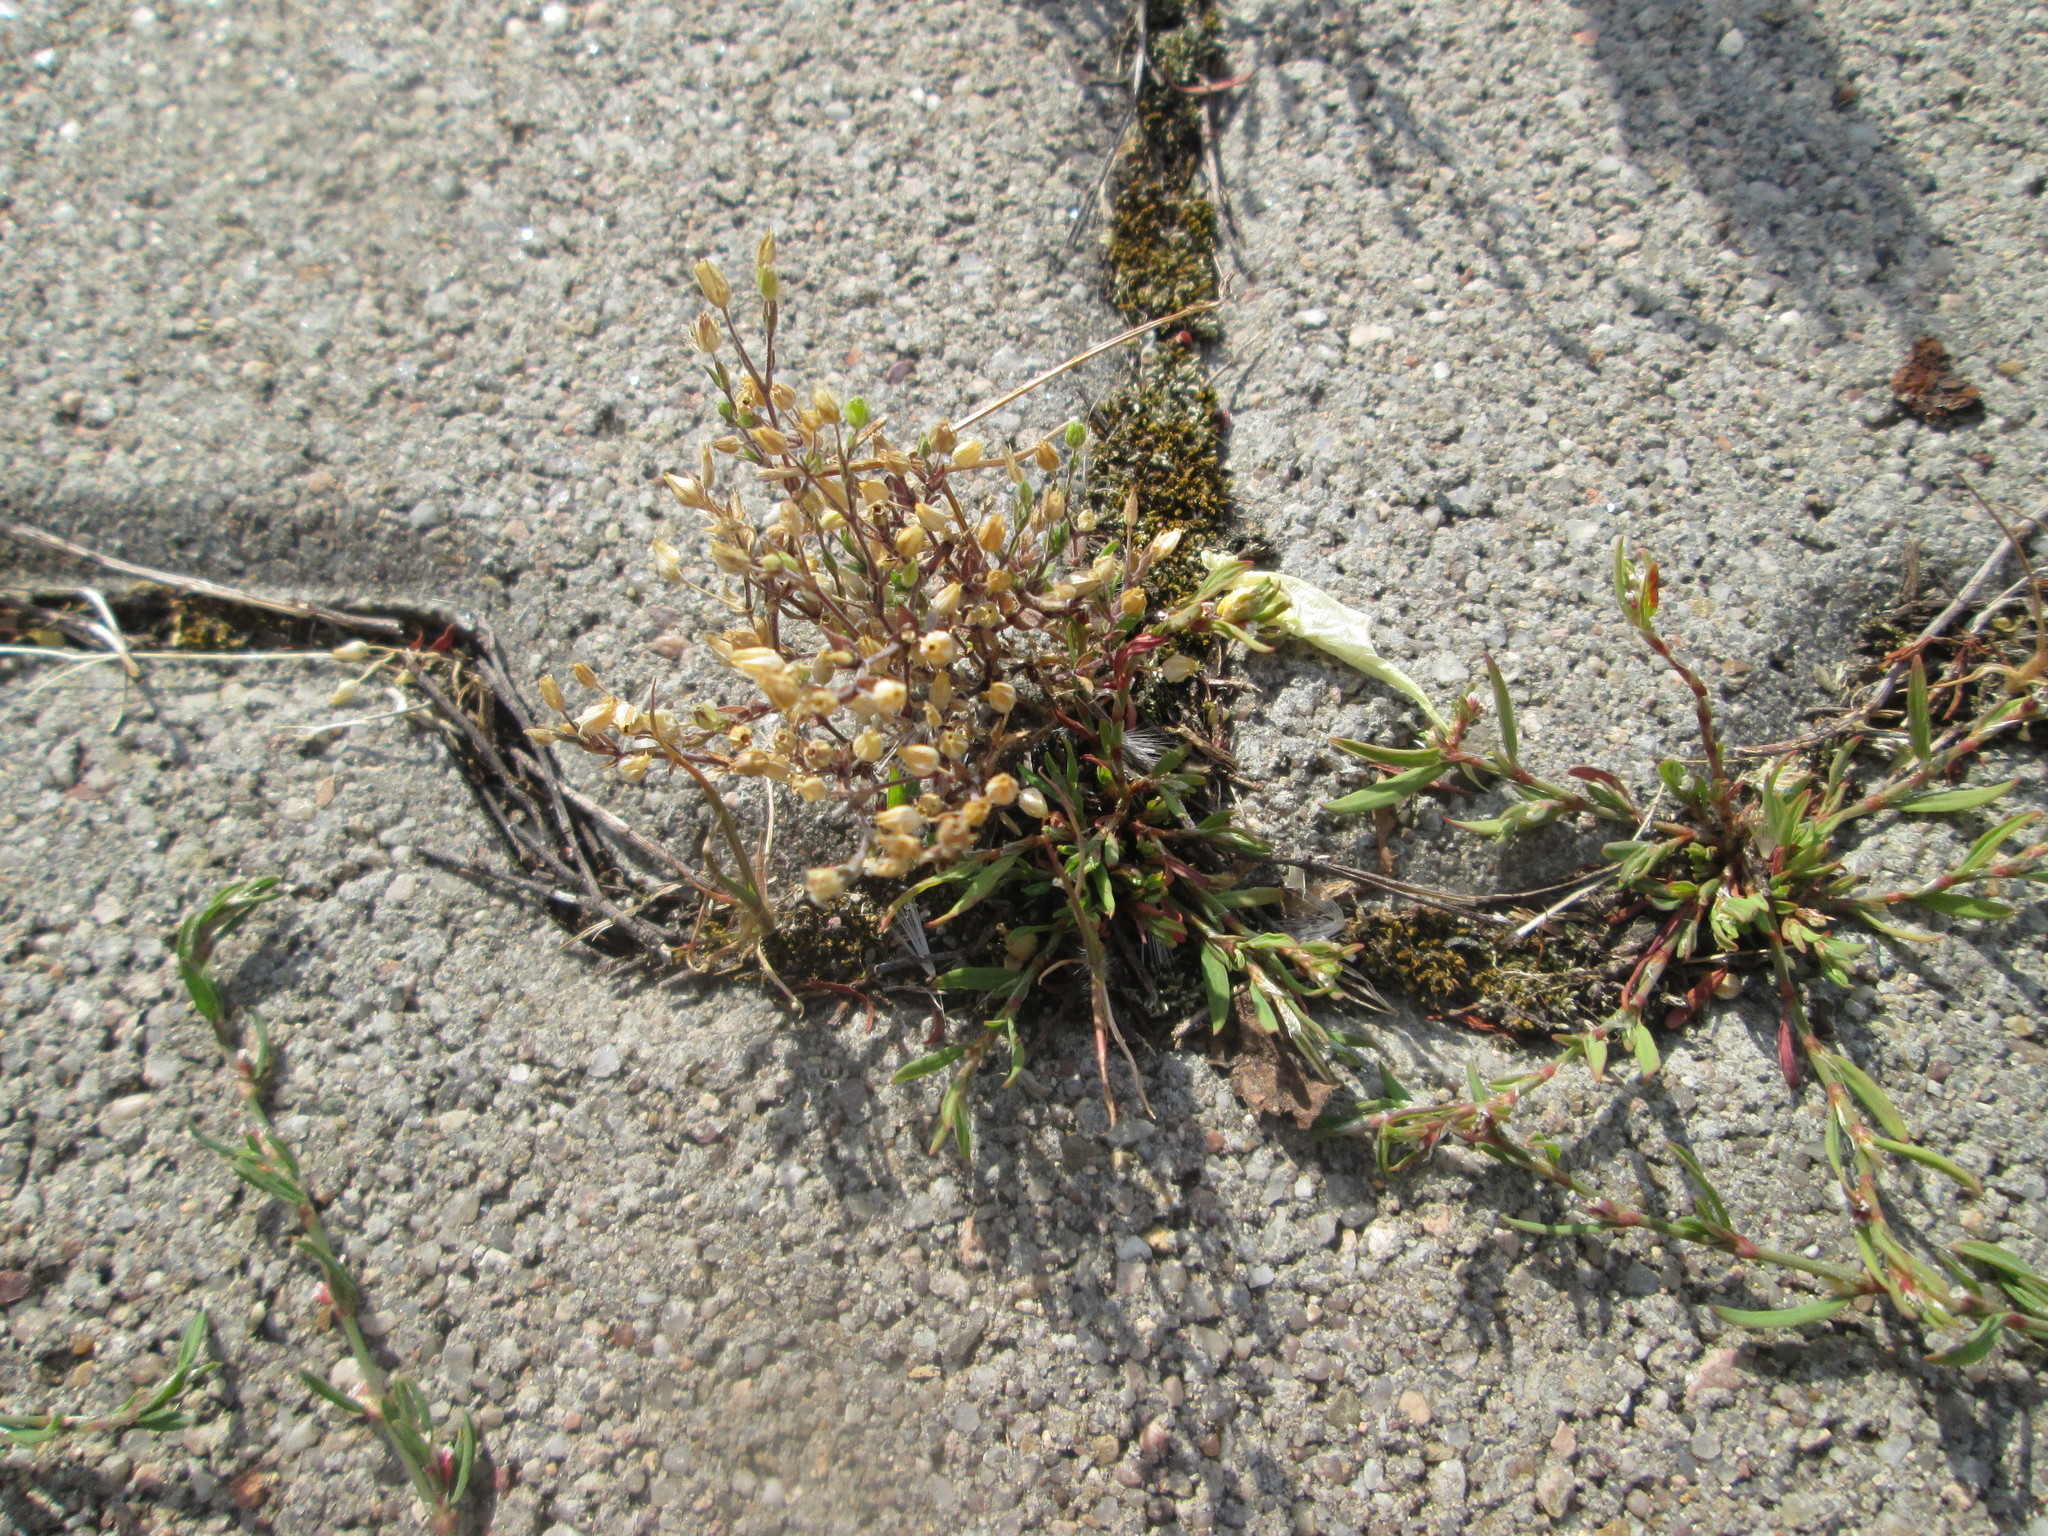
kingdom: Plantae
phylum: Tracheophyta
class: Magnoliopsida
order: Caryophyllales
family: Caryophyllaceae
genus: Arenaria
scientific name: Arenaria serpyllifolia
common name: Thyme-leaved sandwort
